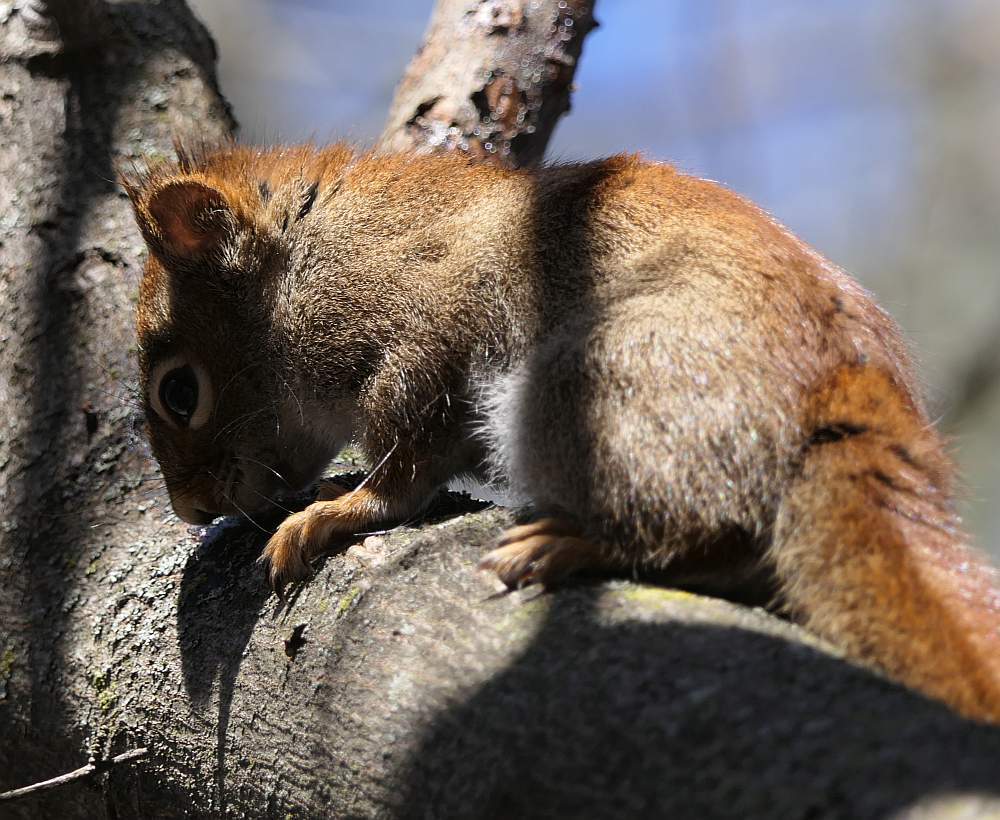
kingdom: Animalia
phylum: Chordata
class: Mammalia
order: Rodentia
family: Sciuridae
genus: Tamiasciurus
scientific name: Tamiasciurus hudsonicus
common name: Red squirrel
